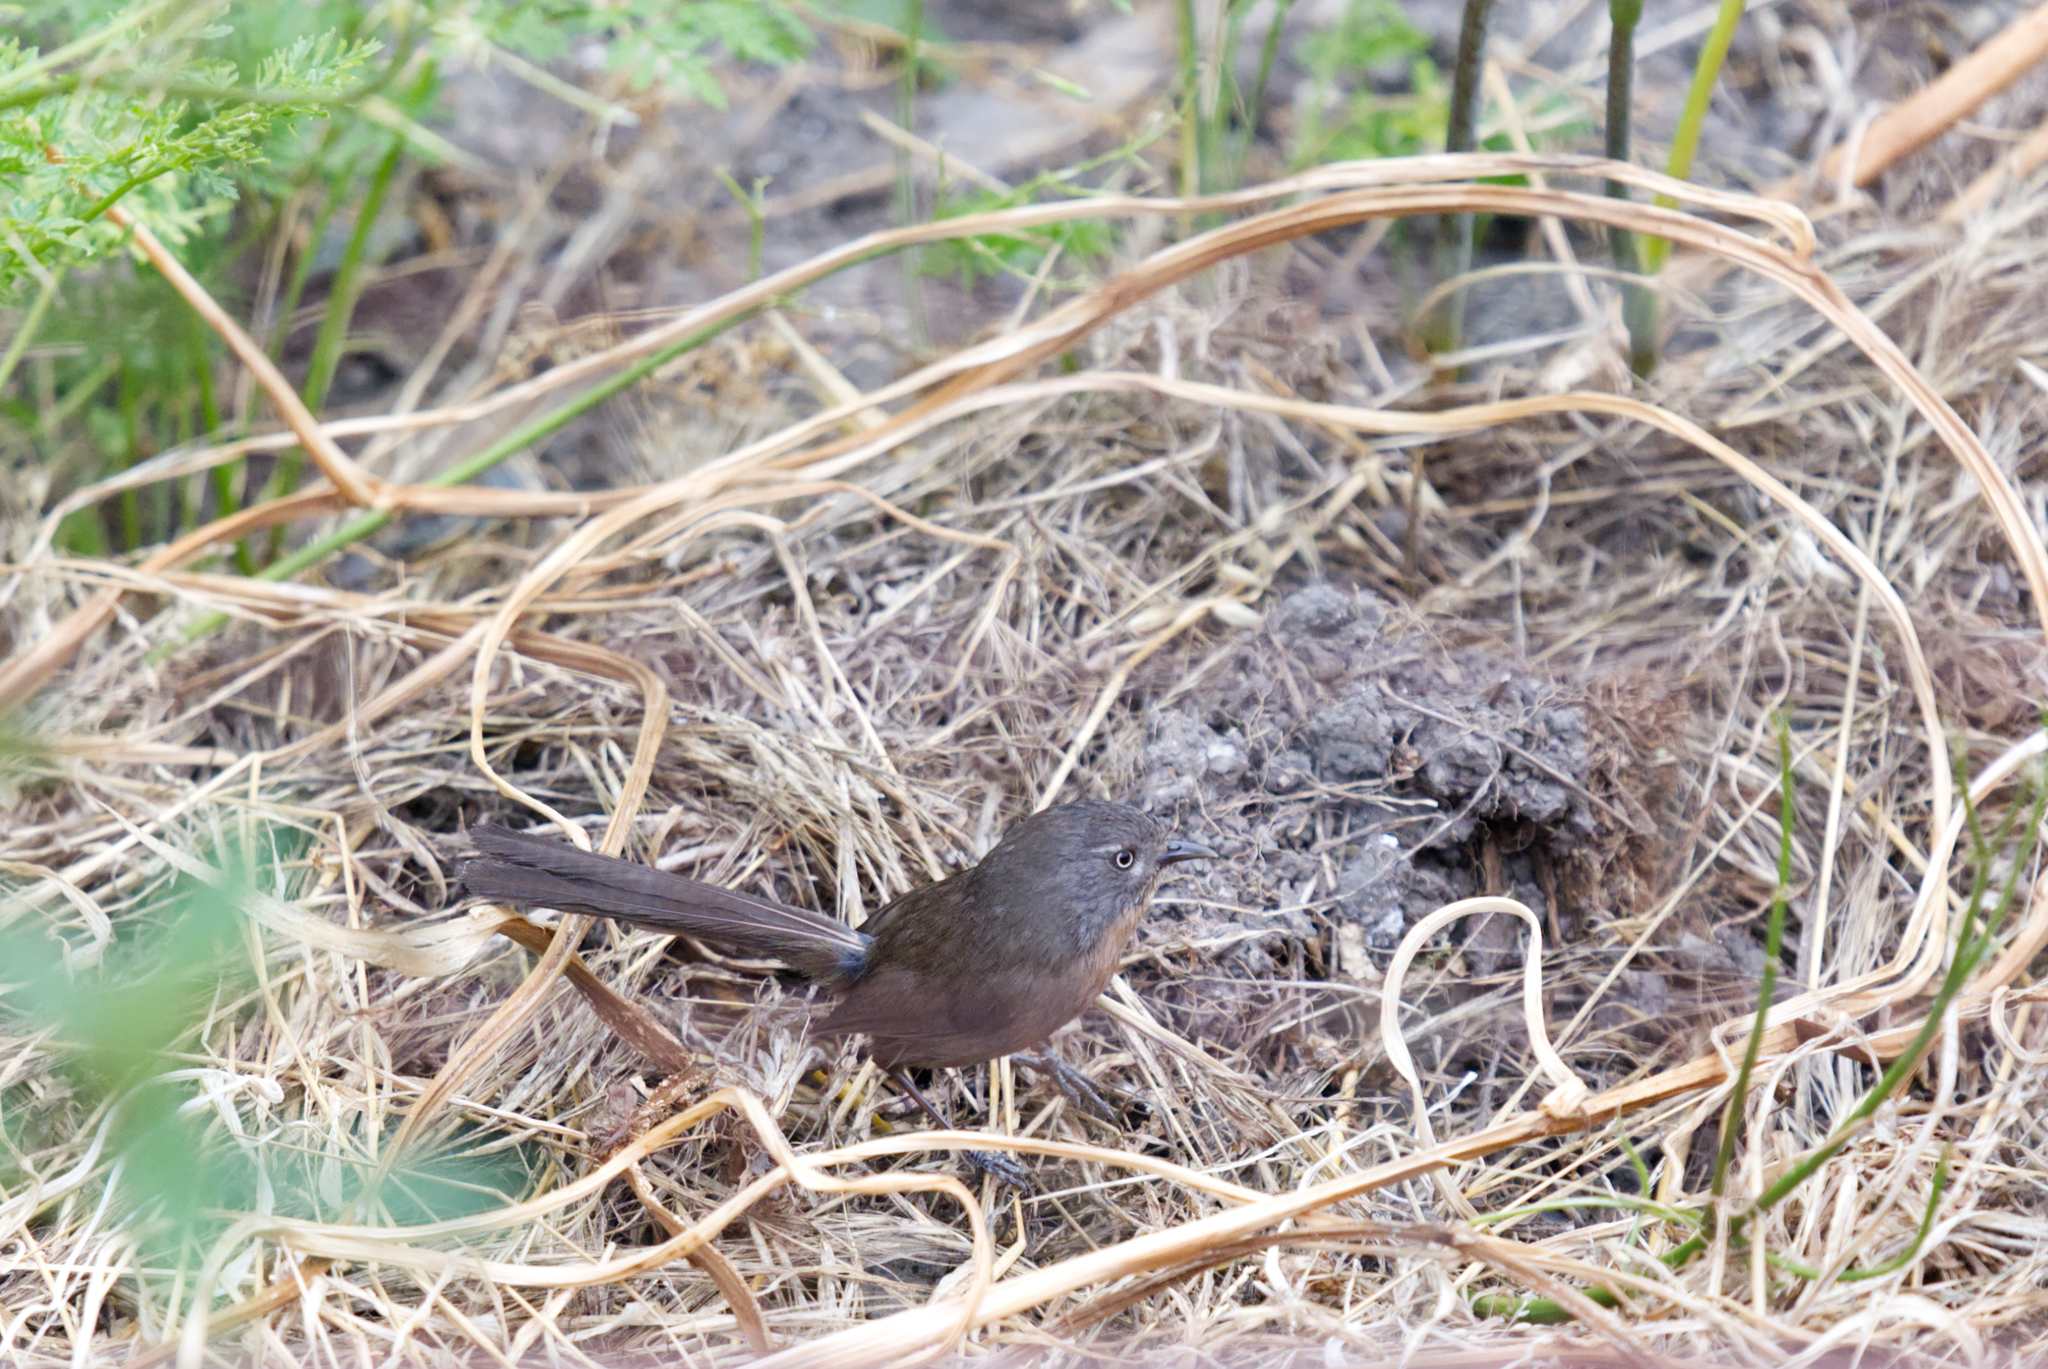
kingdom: Animalia
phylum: Chordata
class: Aves
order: Passeriformes
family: Sylviidae
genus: Chamaea
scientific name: Chamaea fasciata
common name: Wrentit
